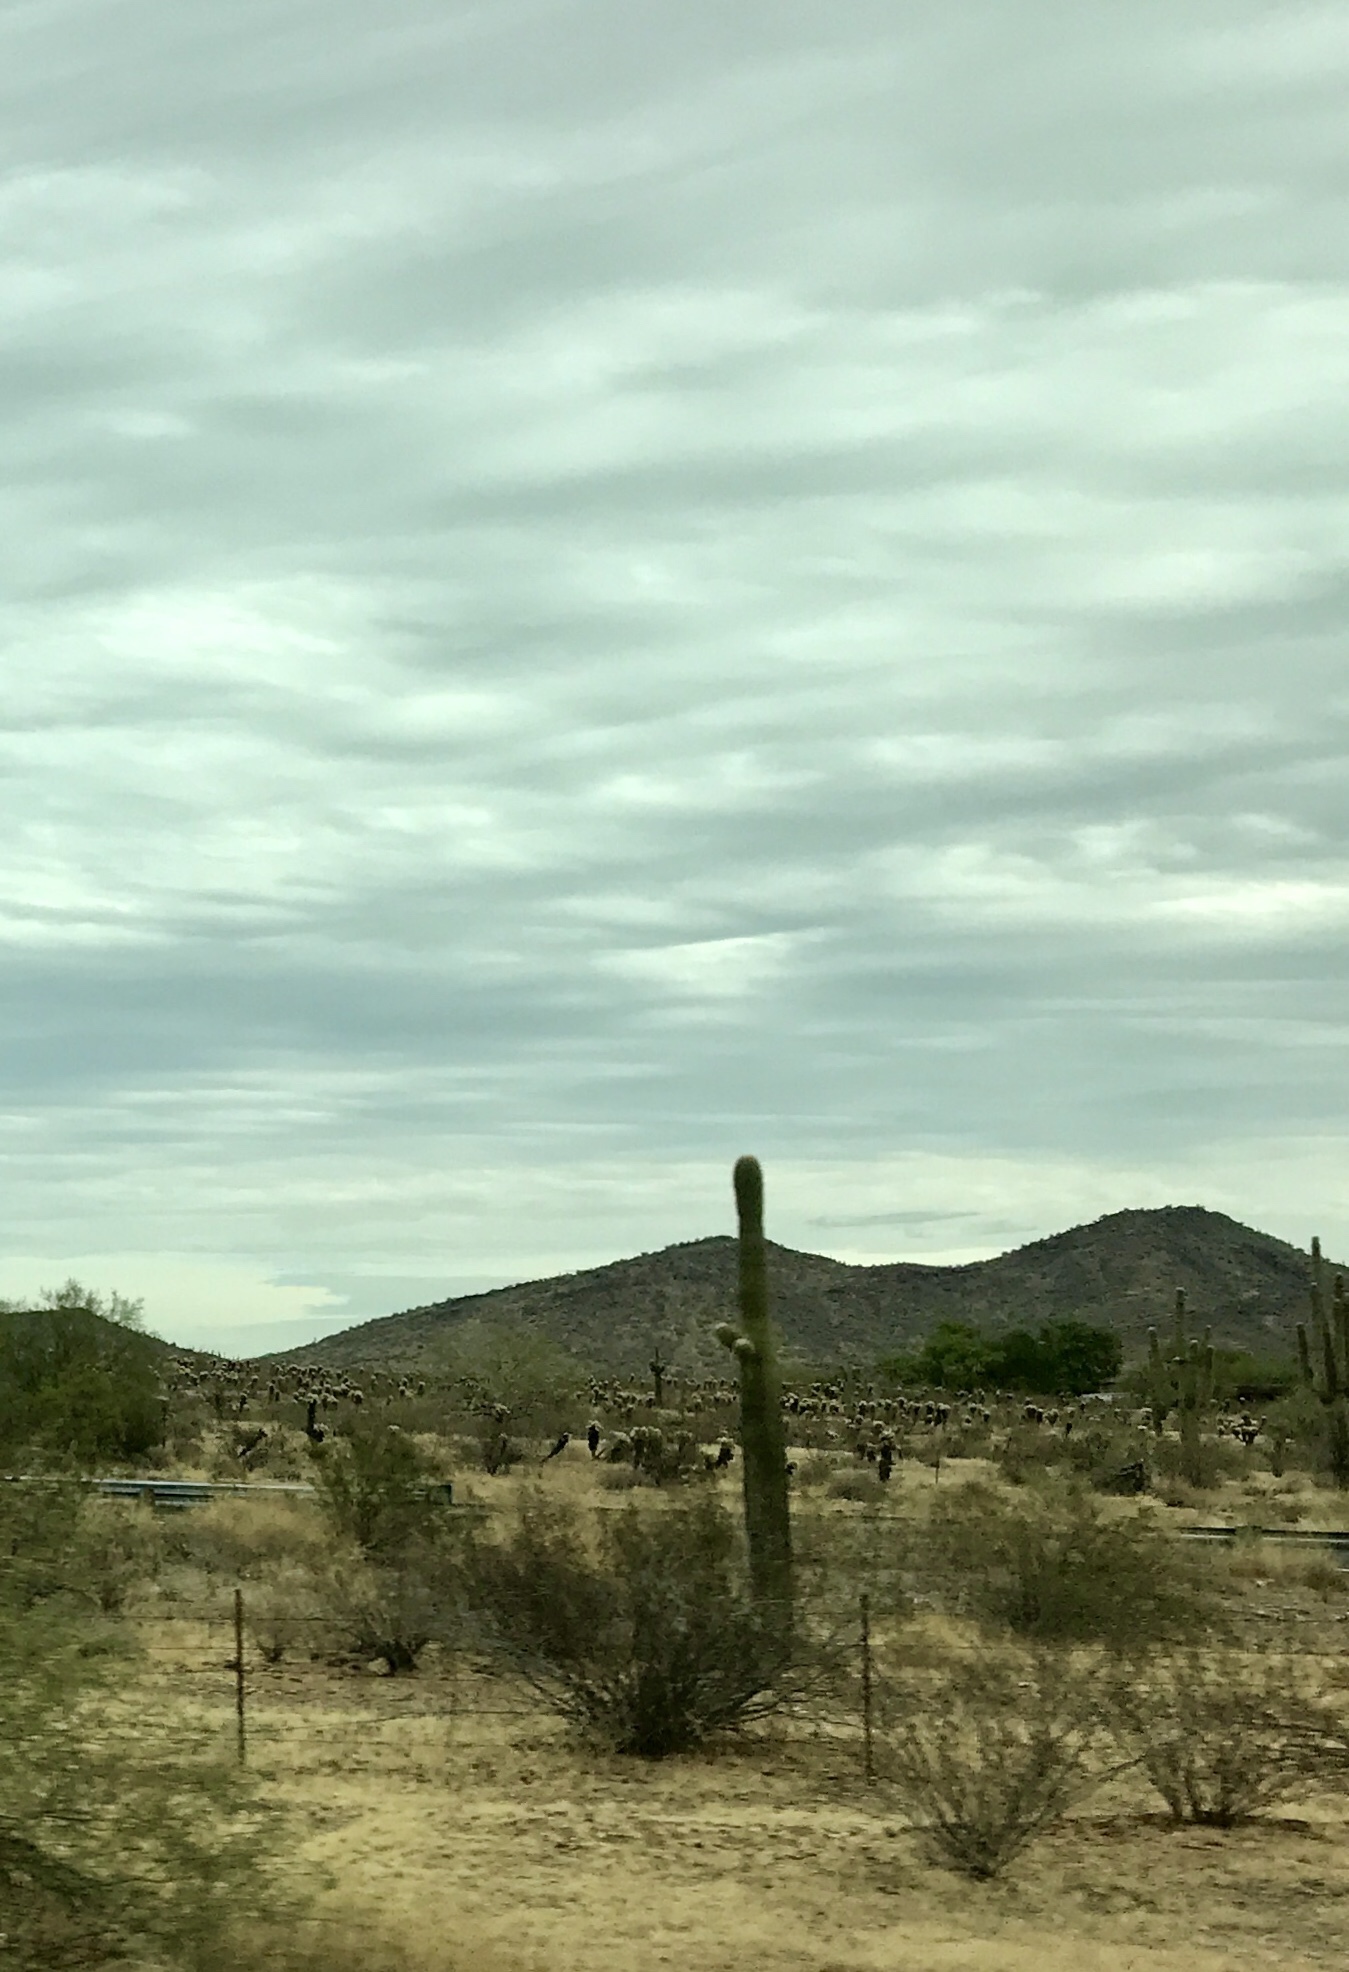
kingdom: Plantae
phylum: Tracheophyta
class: Magnoliopsida
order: Caryophyllales
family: Cactaceae
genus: Carnegiea
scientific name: Carnegiea gigantea
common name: Saguaro
